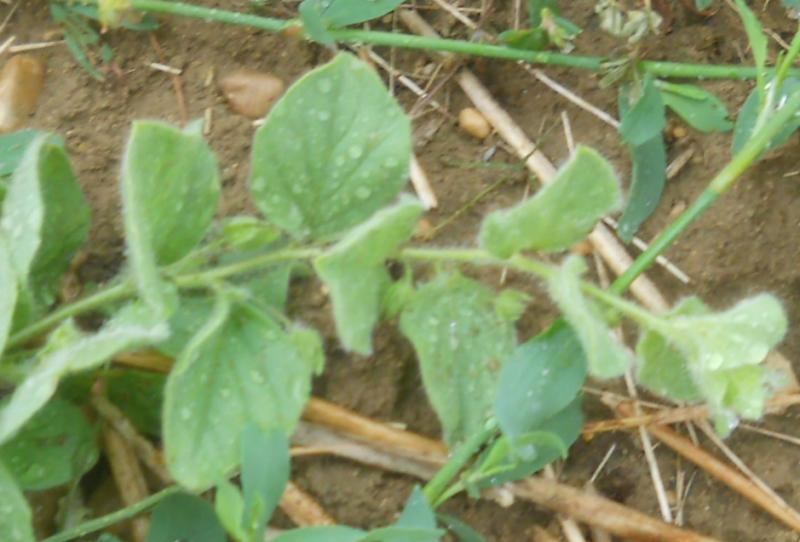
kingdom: Plantae
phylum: Tracheophyta
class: Magnoliopsida
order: Lamiales
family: Plantaginaceae
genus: Kickxia
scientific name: Kickxia spuria
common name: Round-leaved fluellen
